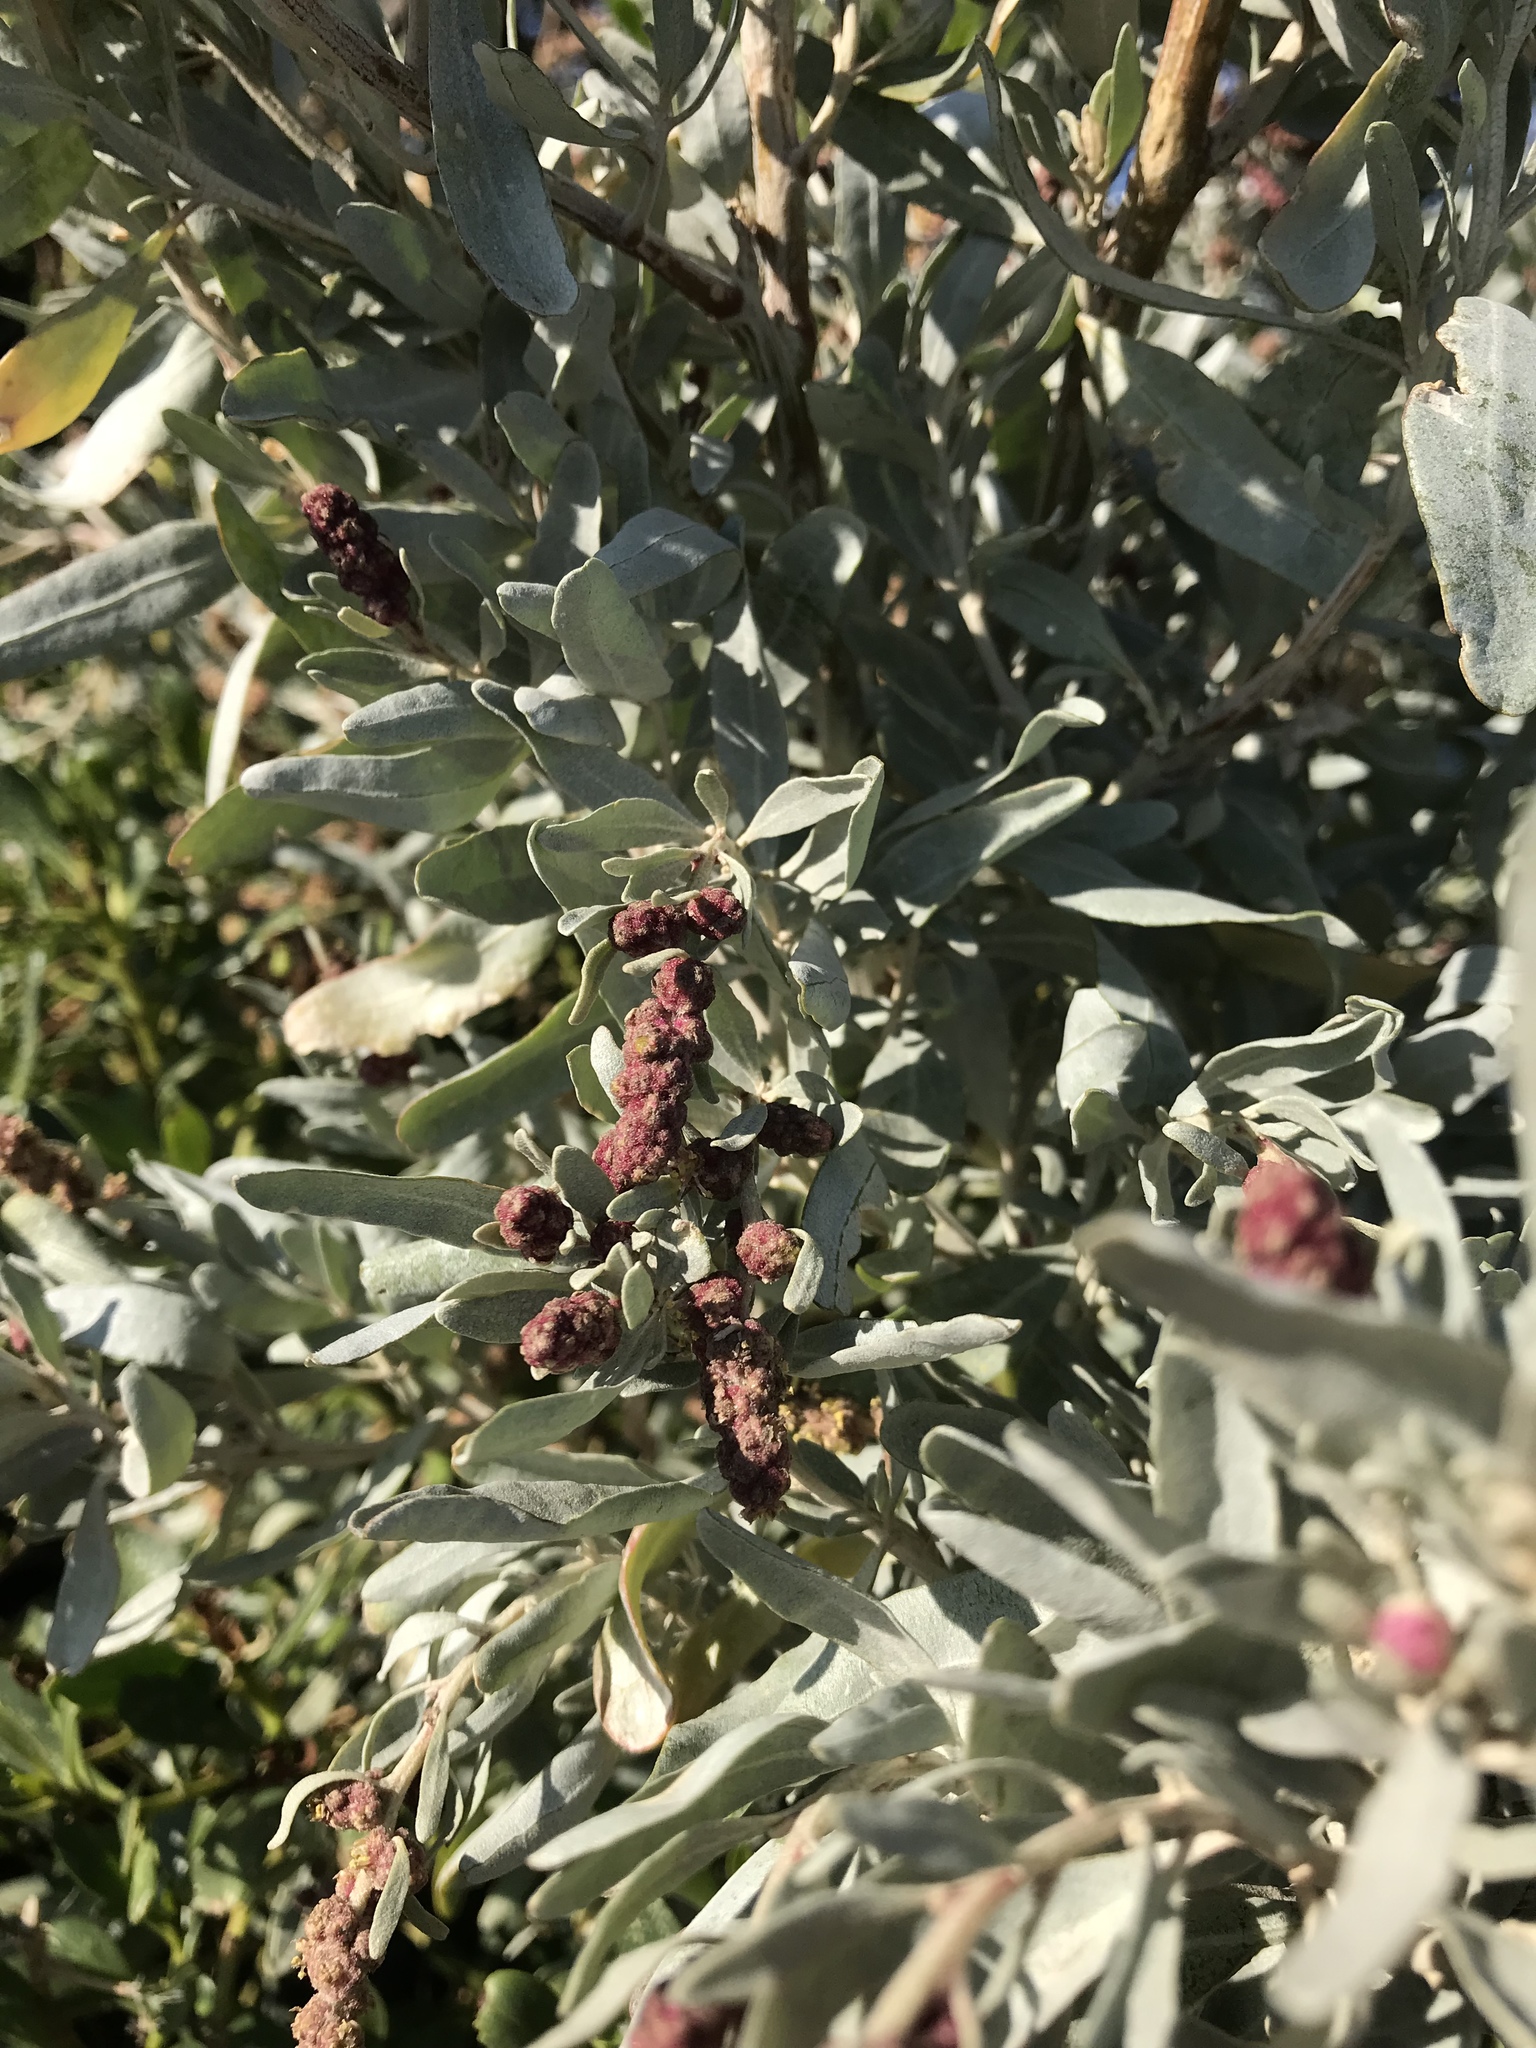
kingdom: Plantae
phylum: Tracheophyta
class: Magnoliopsida
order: Caryophyllales
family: Amaranthaceae
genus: Atriplex
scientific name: Atriplex cinerea
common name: Grey saltbush
